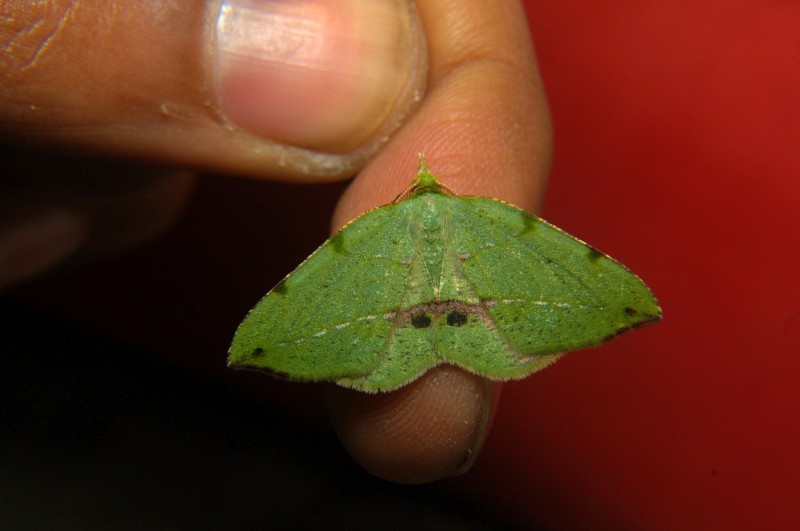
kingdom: Animalia
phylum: Arthropoda
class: Insecta
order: Lepidoptera
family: Geometridae
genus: Apoheterolocha
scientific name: Apoheterolocha patalata
